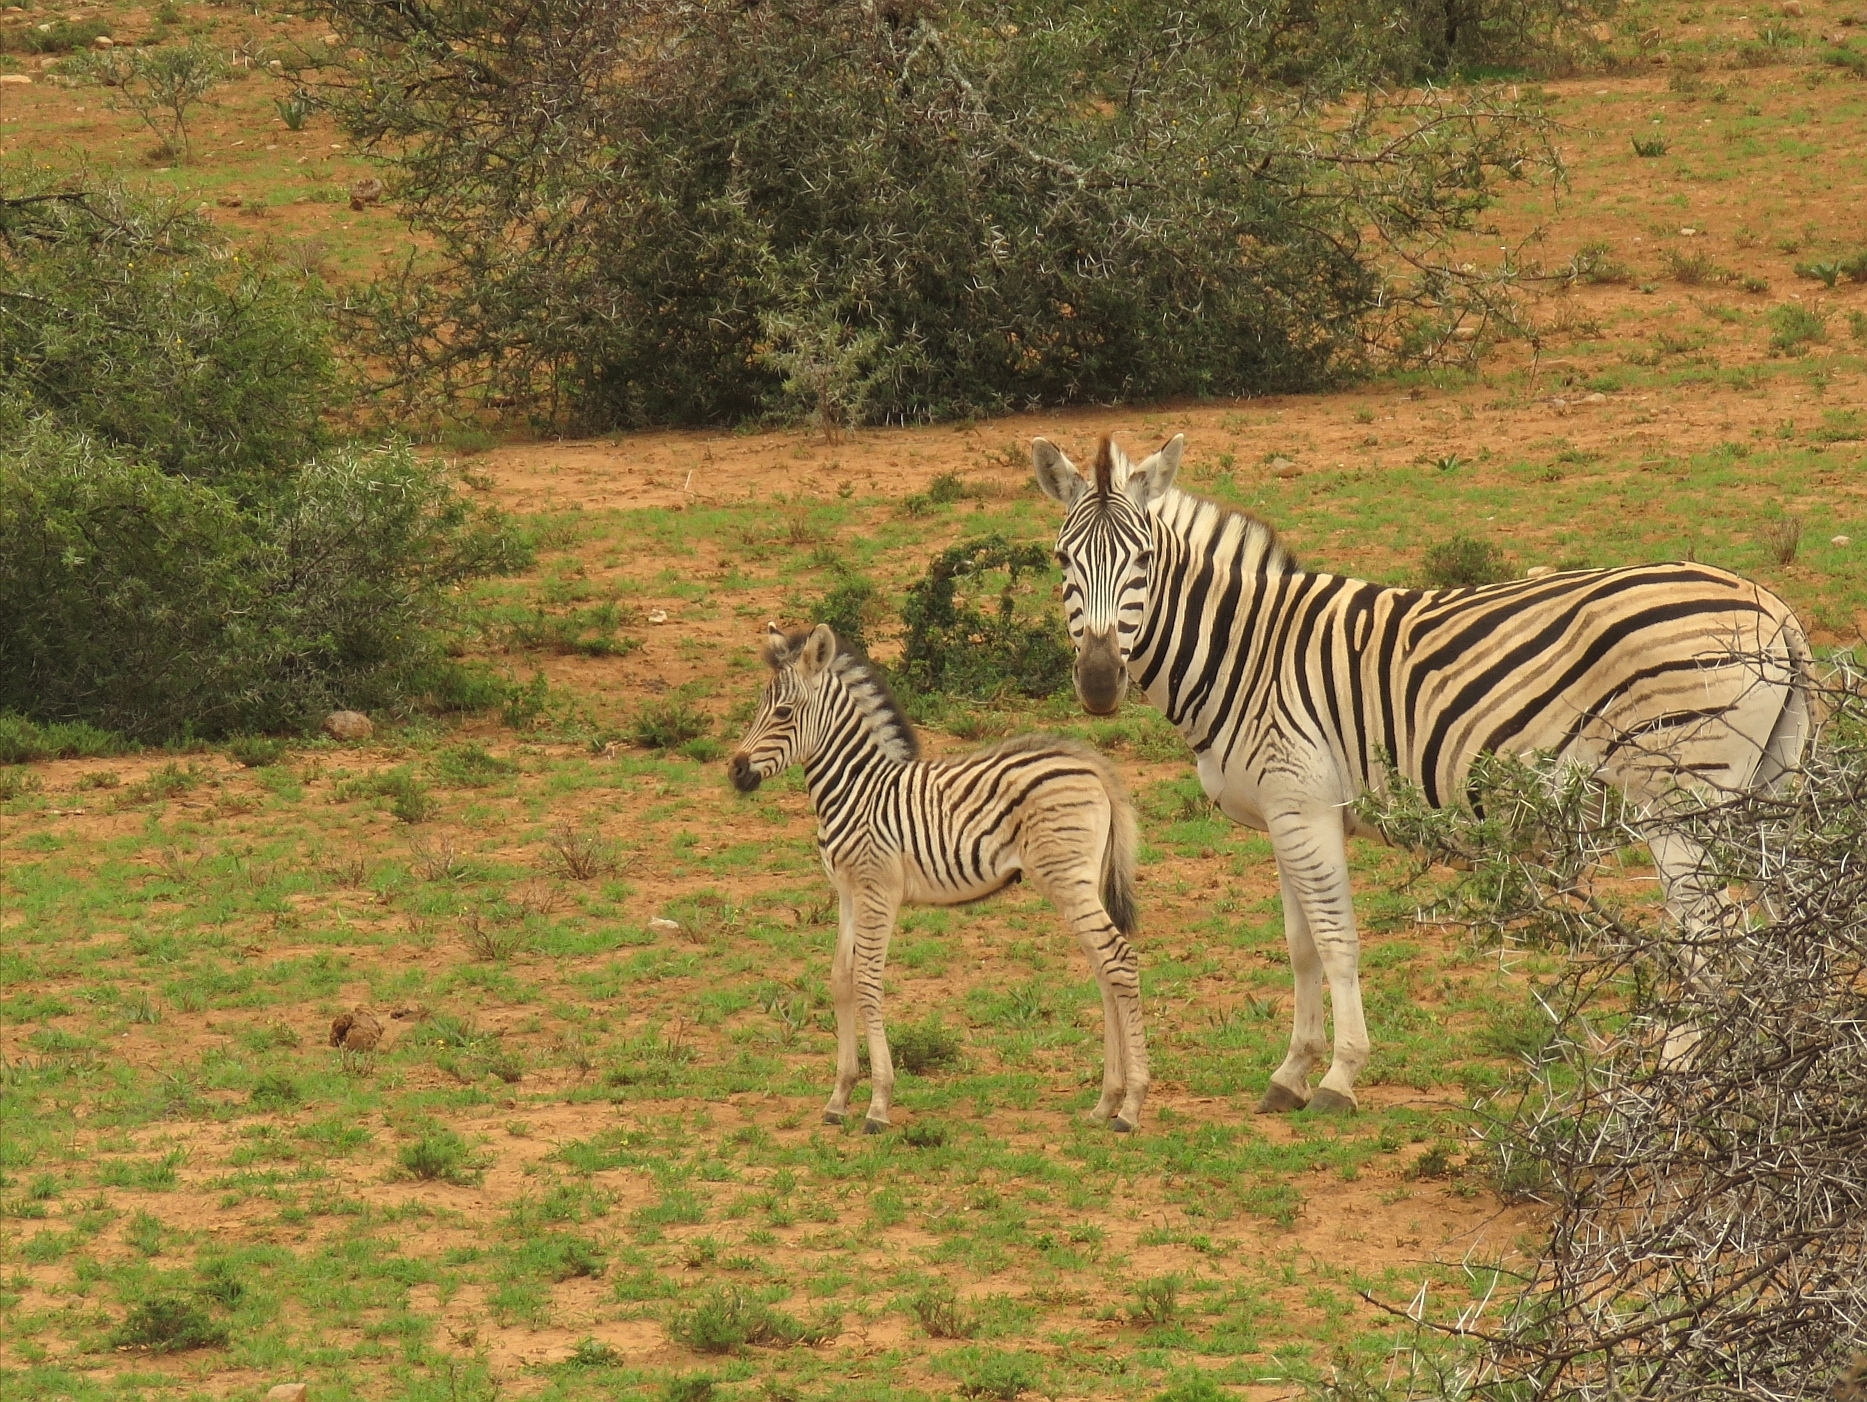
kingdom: Animalia
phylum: Chordata
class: Mammalia
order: Perissodactyla
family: Equidae
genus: Equus
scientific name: Equus quagga
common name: Plains zebra
